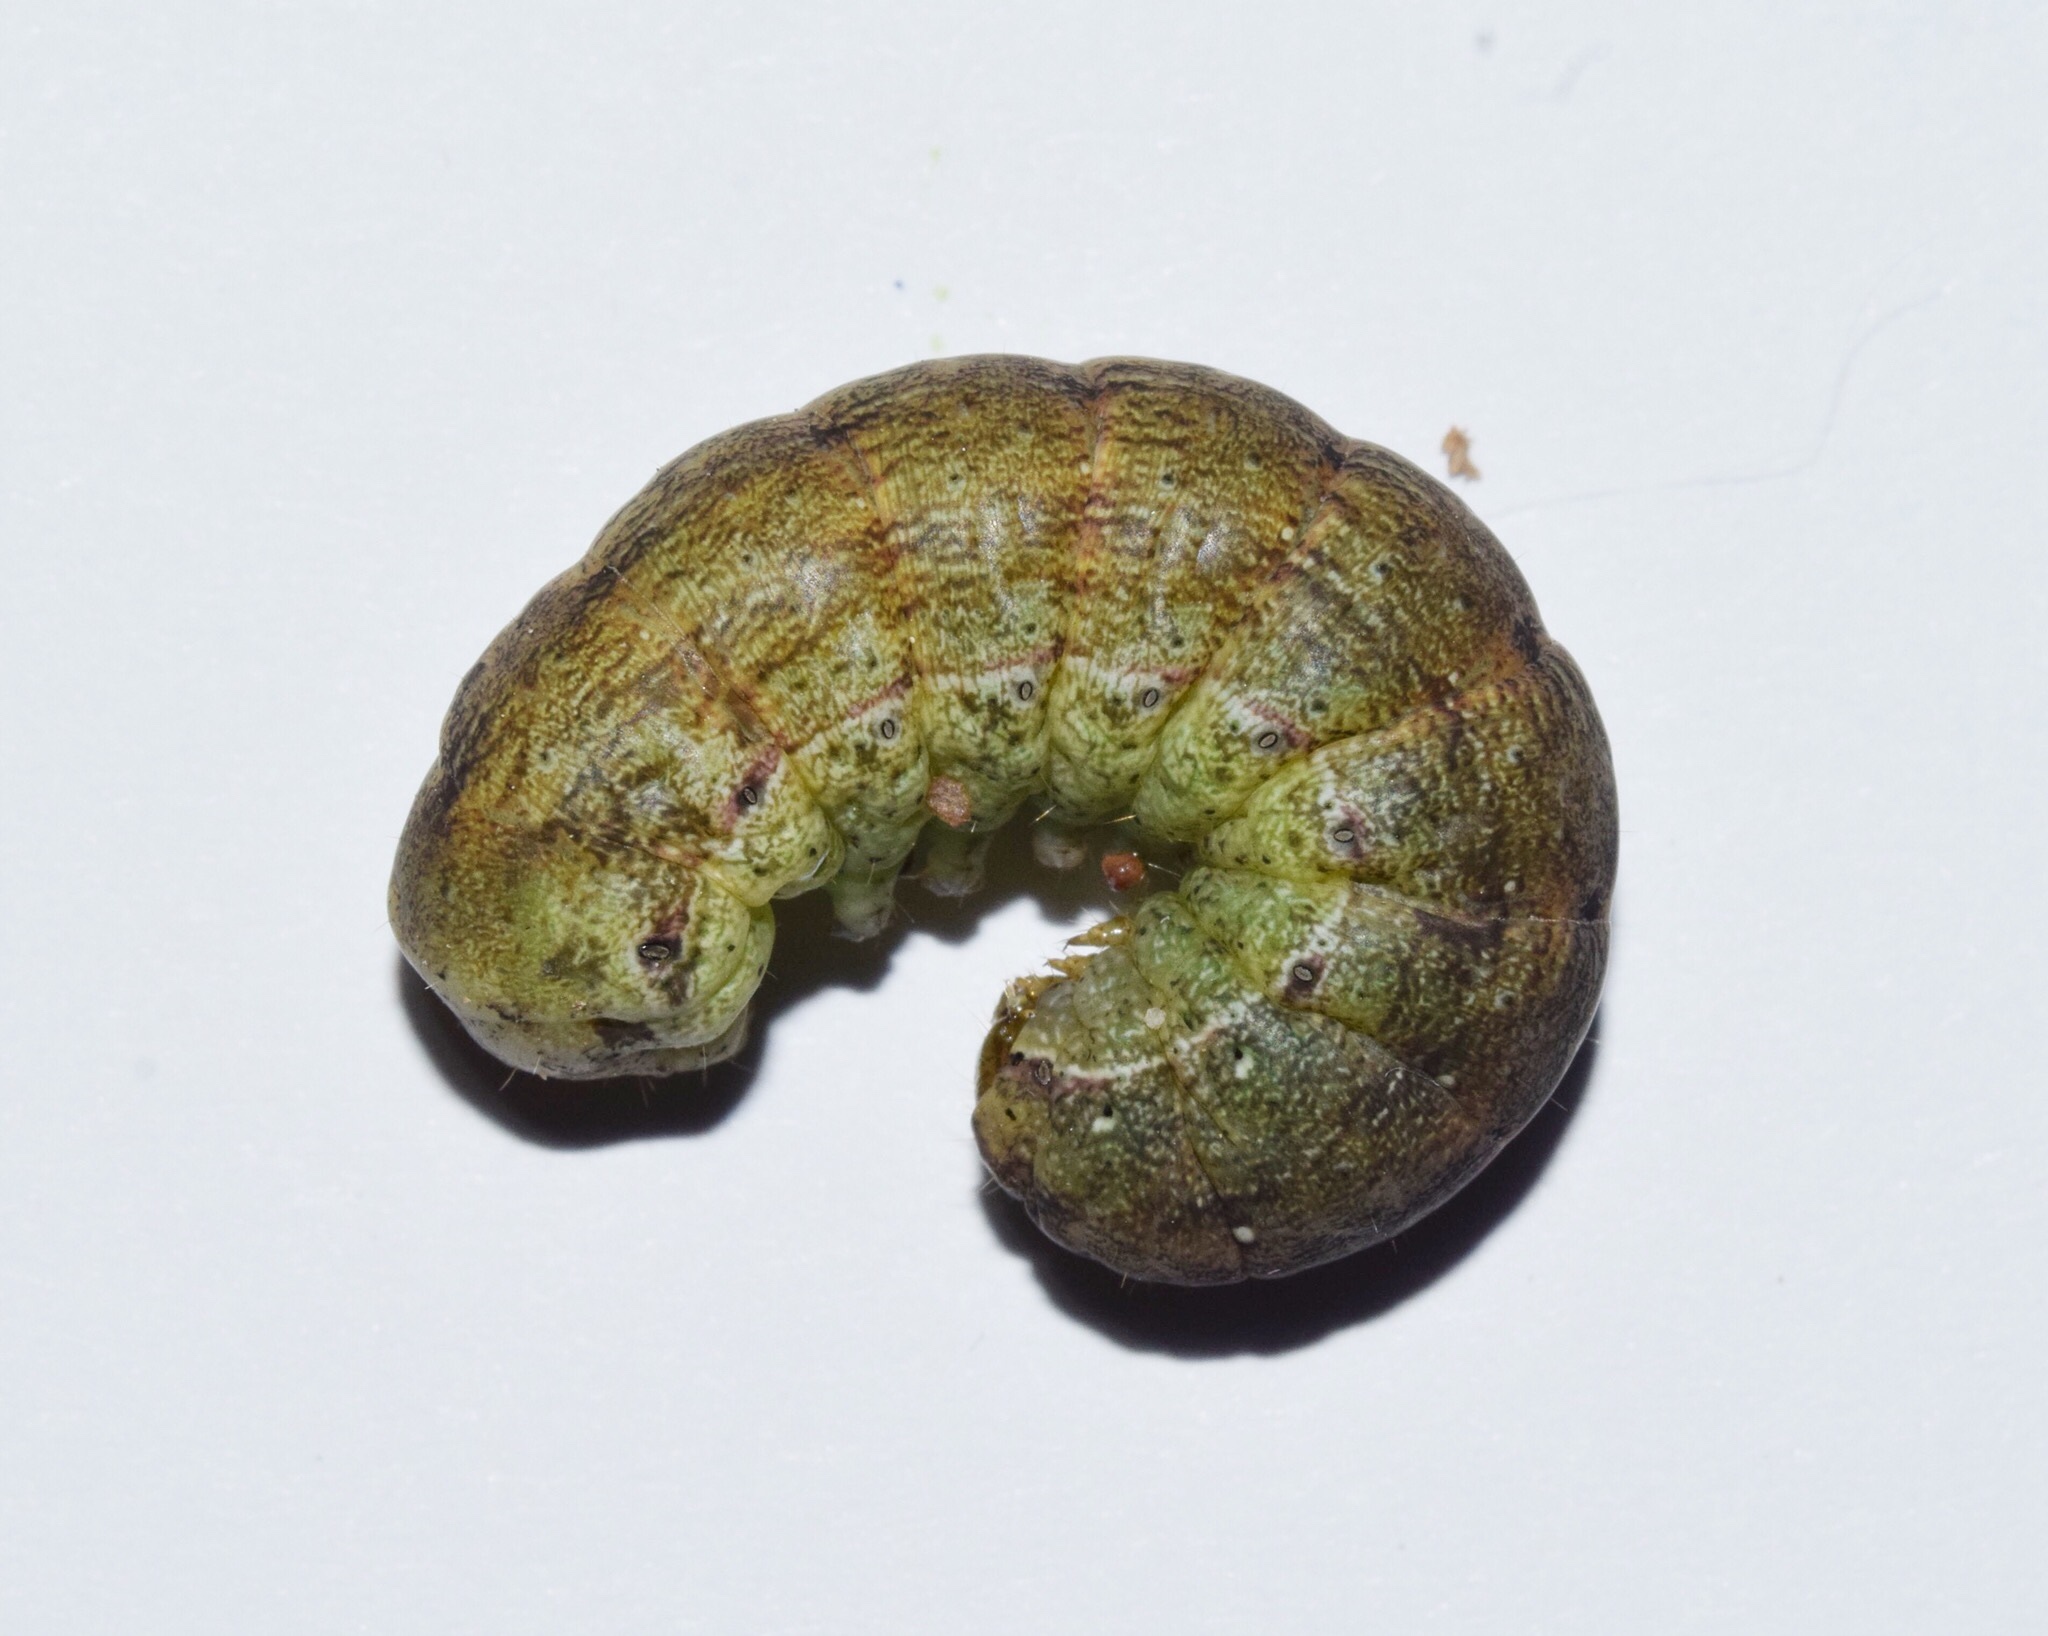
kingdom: Animalia
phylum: Arthropoda
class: Insecta
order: Lepidoptera
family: Noctuidae
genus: Mentaxya
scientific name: Mentaxya ignicollis
